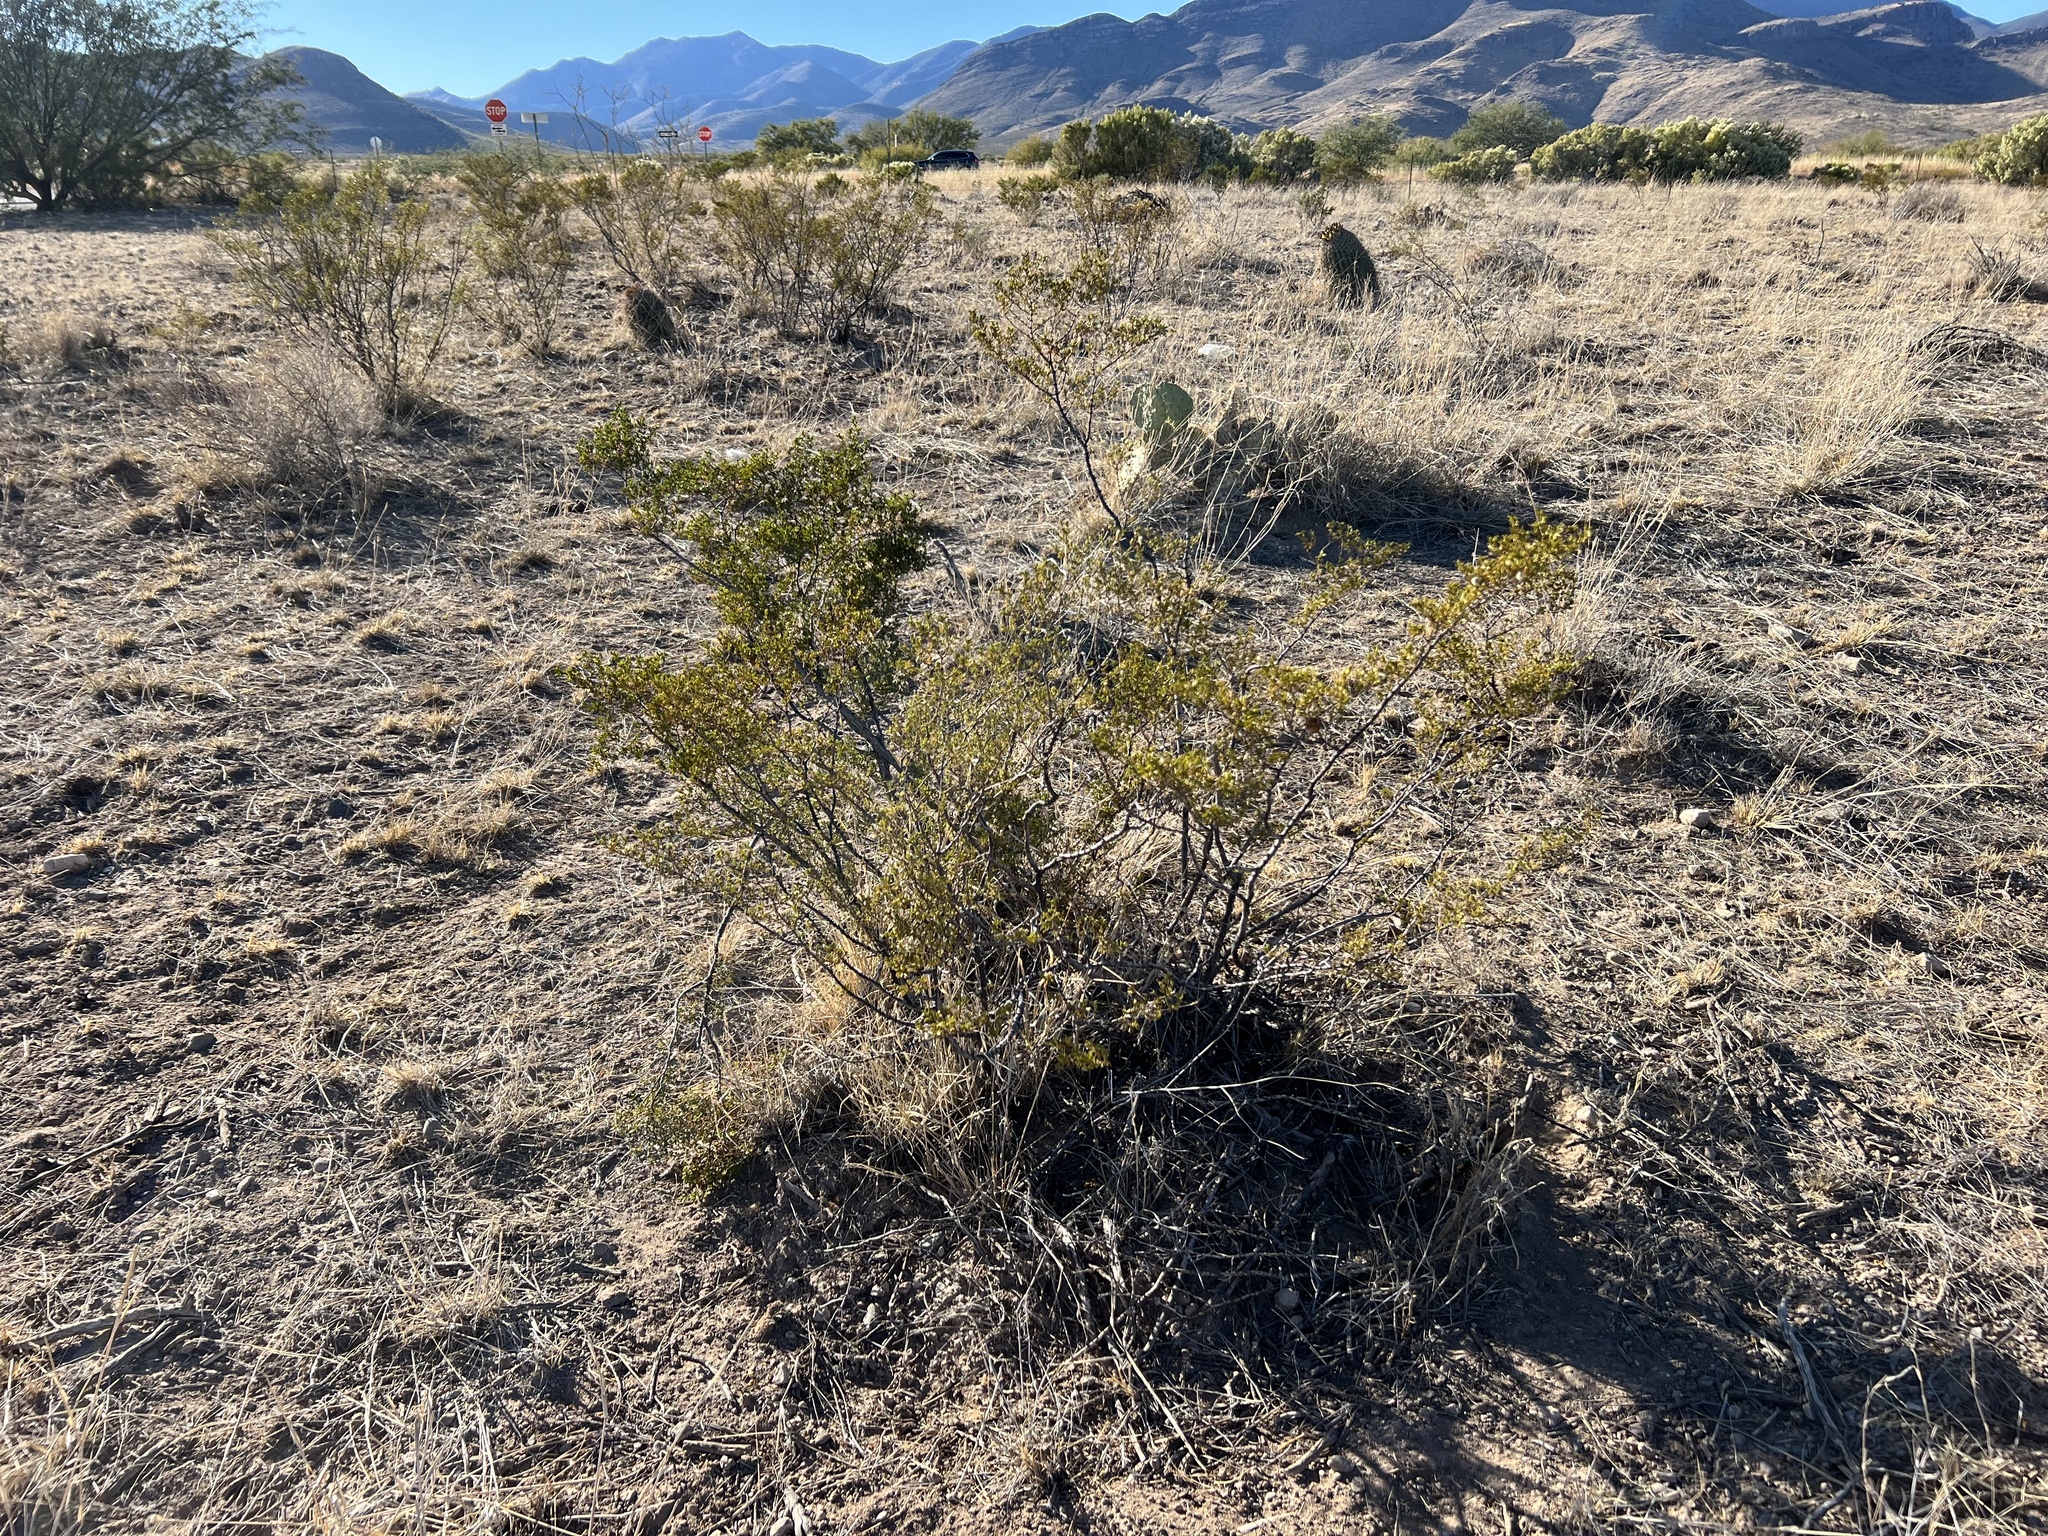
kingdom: Plantae
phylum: Tracheophyta
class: Magnoliopsida
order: Zygophyllales
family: Zygophyllaceae
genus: Larrea
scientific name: Larrea tridentata
